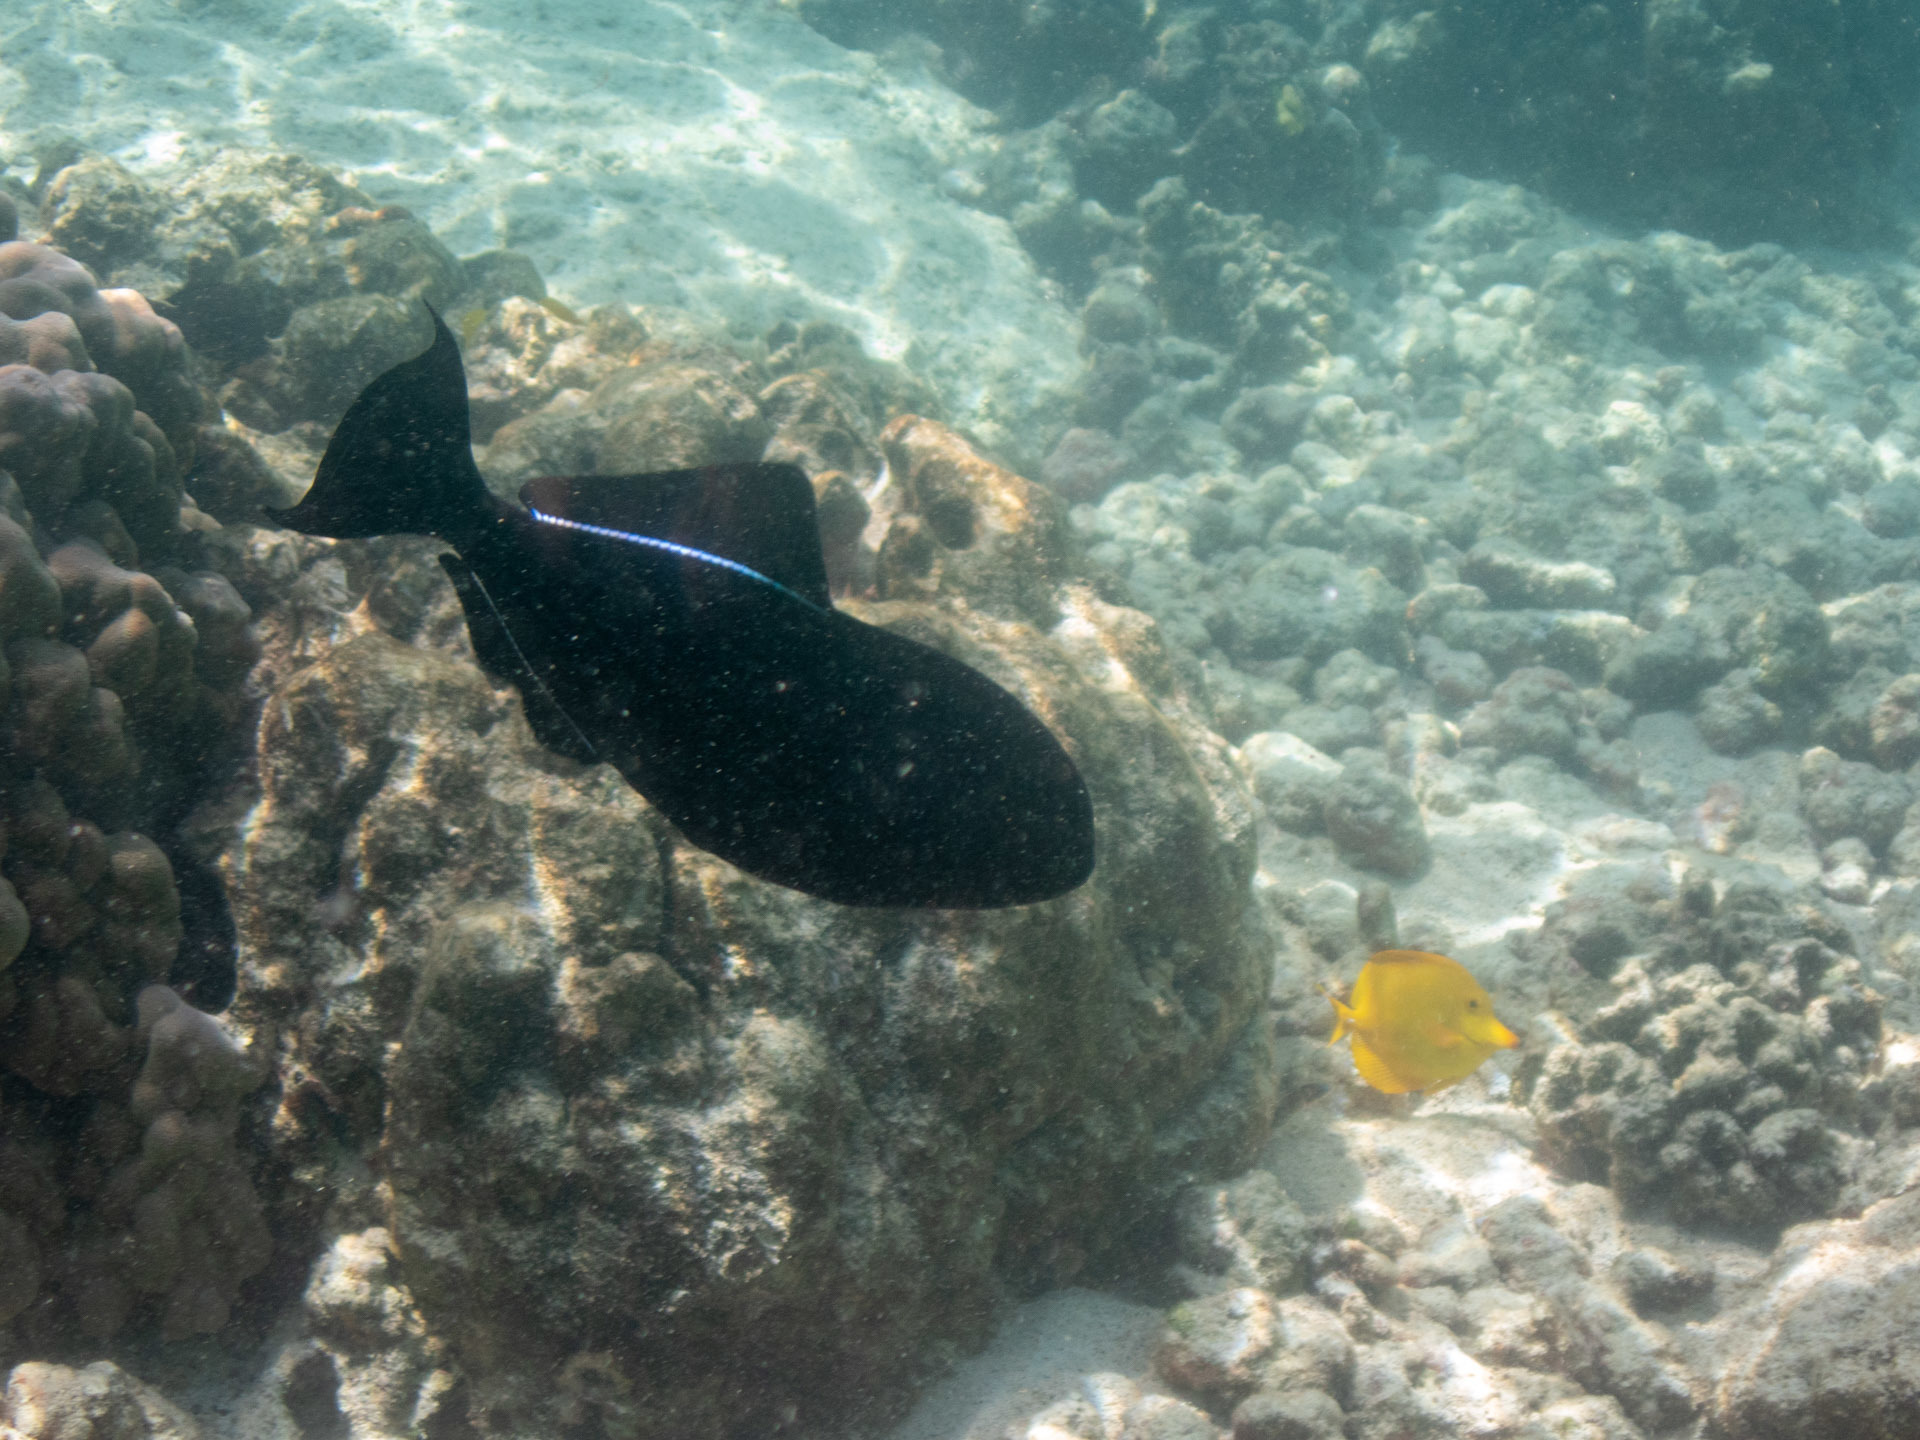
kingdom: Animalia
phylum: Chordata
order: Tetraodontiformes
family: Balistidae
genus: Melichthys
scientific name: Melichthys niger
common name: Black durgon
